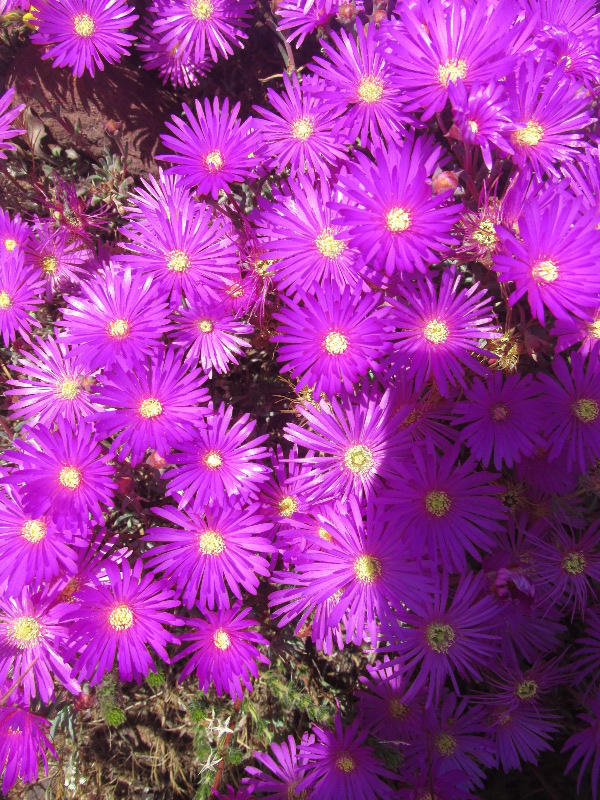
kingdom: Plantae
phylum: Tracheophyta
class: Magnoliopsida
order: Caryophyllales
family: Aizoaceae
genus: Lampranthus
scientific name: Lampranthus emarginatus
